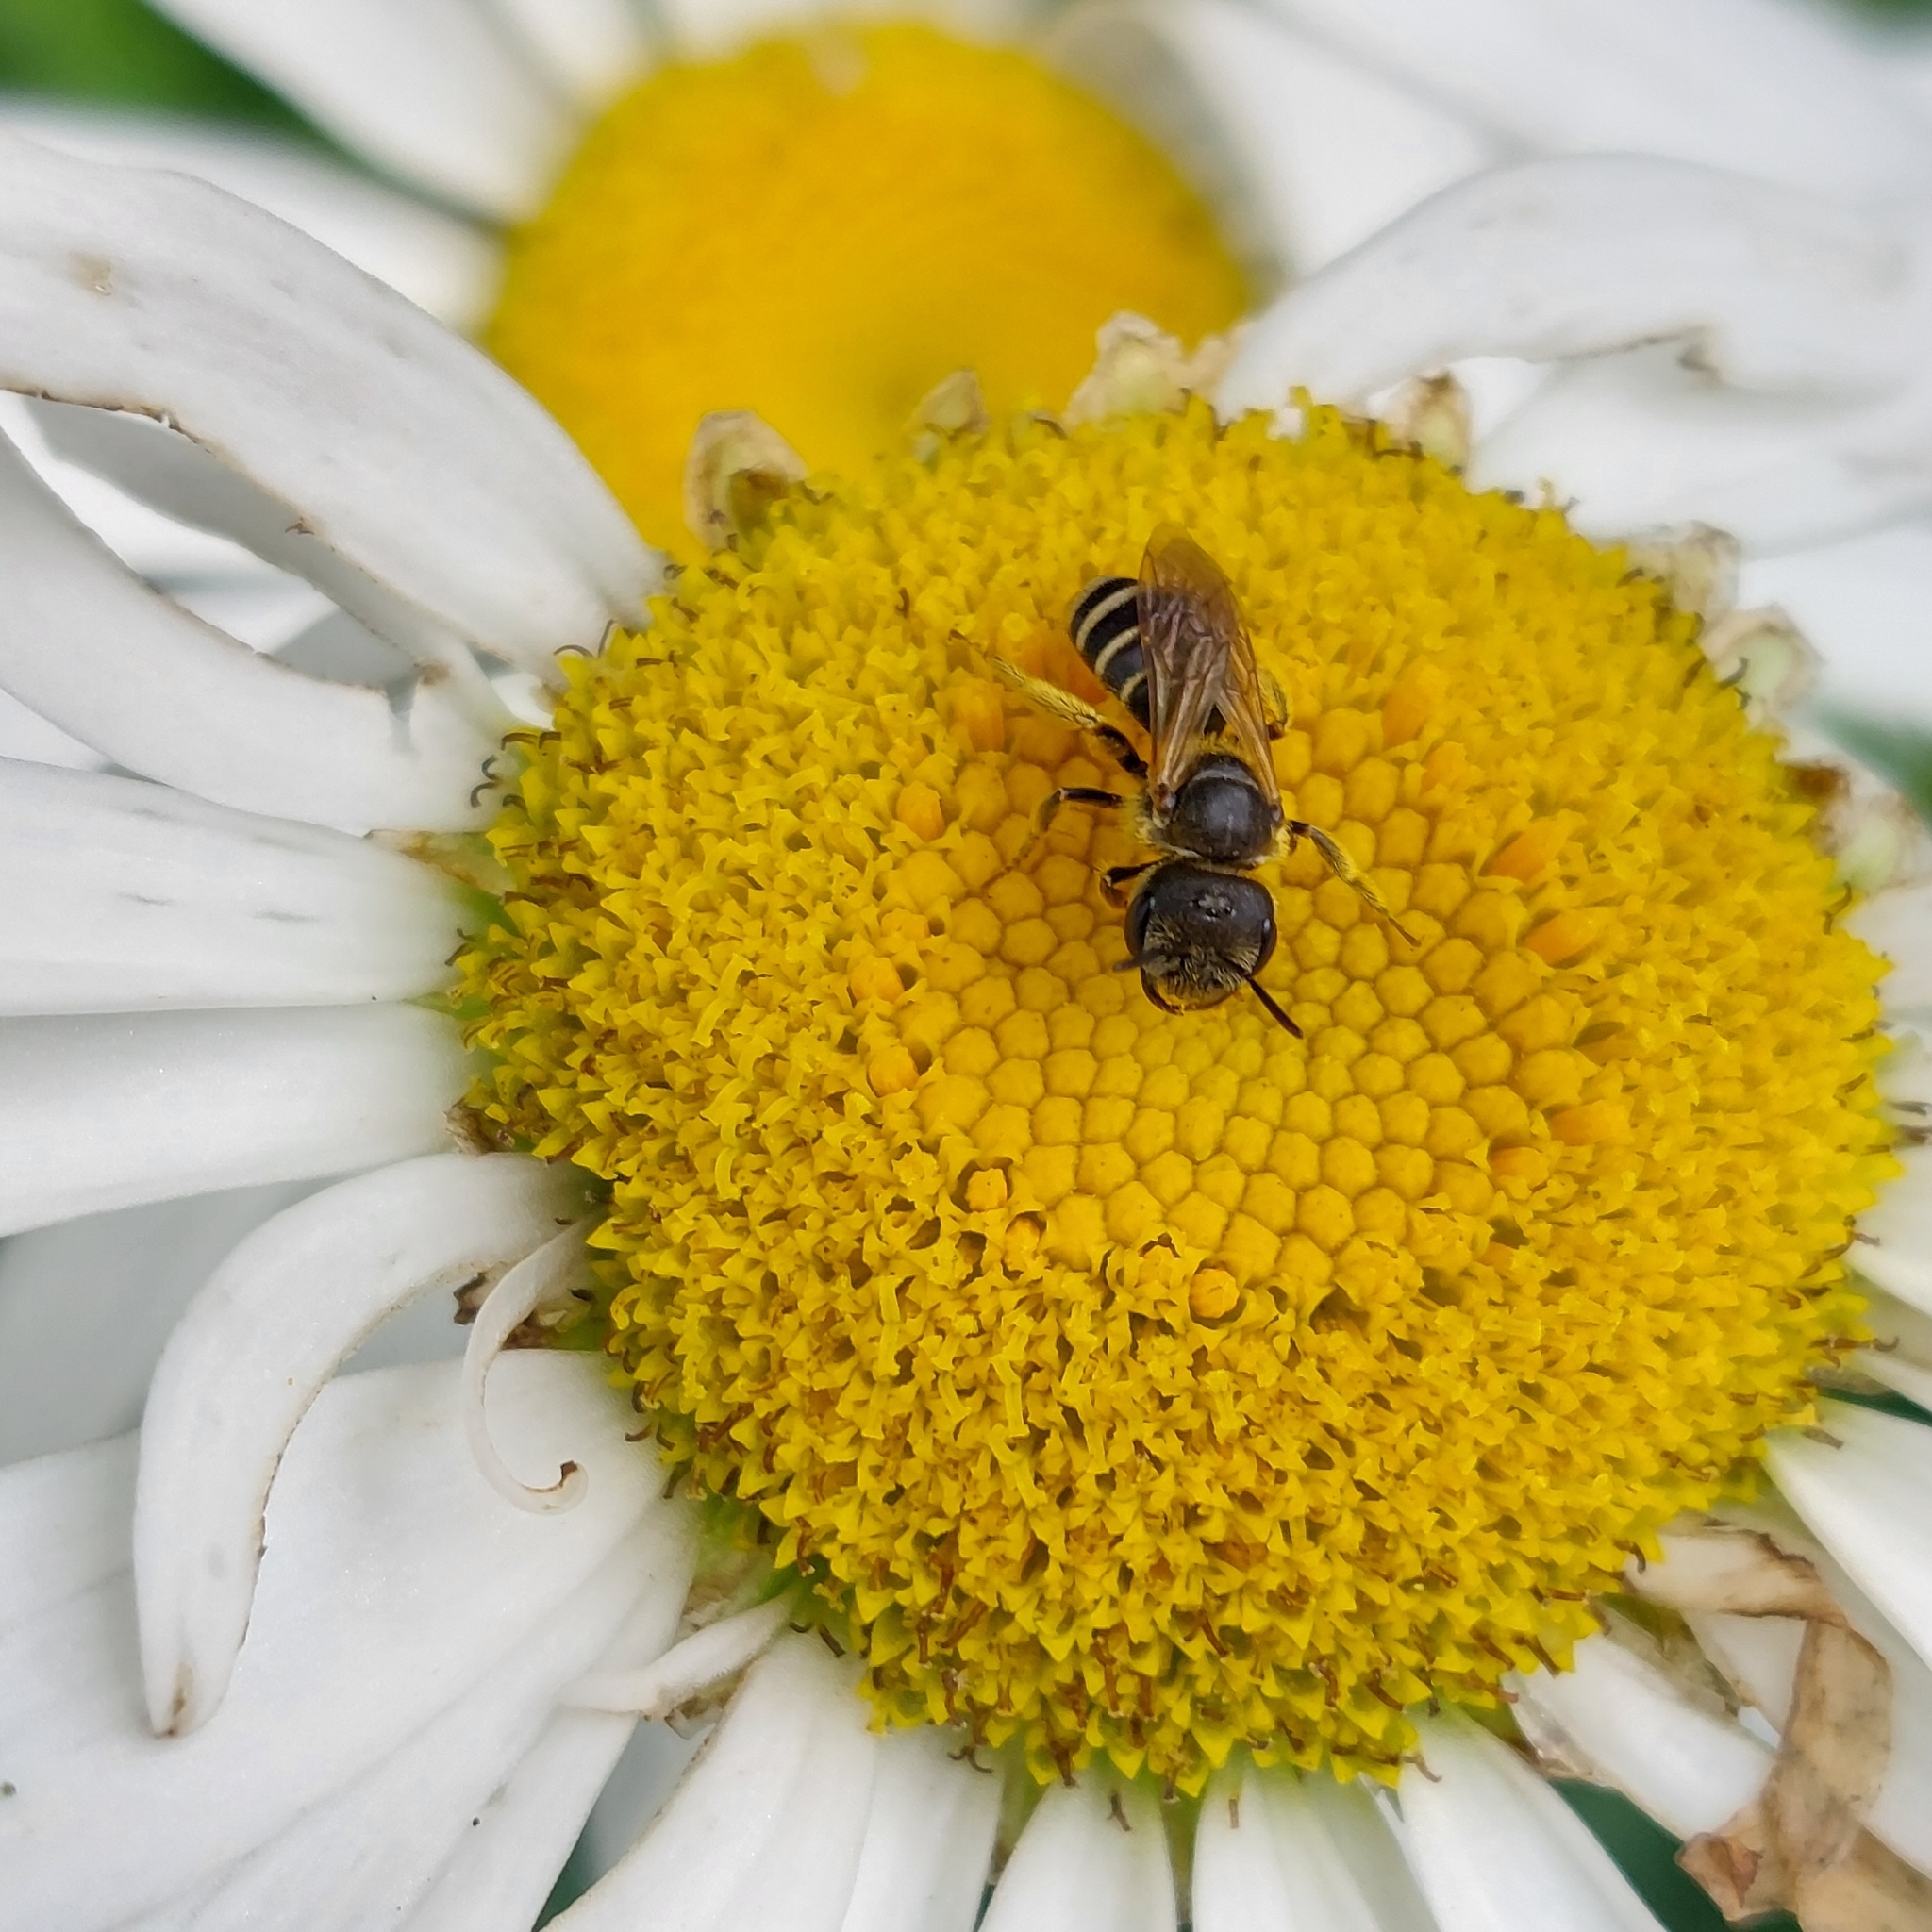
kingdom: Animalia
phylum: Arthropoda
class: Insecta
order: Hymenoptera
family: Halictidae
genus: Halictus
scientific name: Halictus ligatus
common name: Ligated furrow bee
